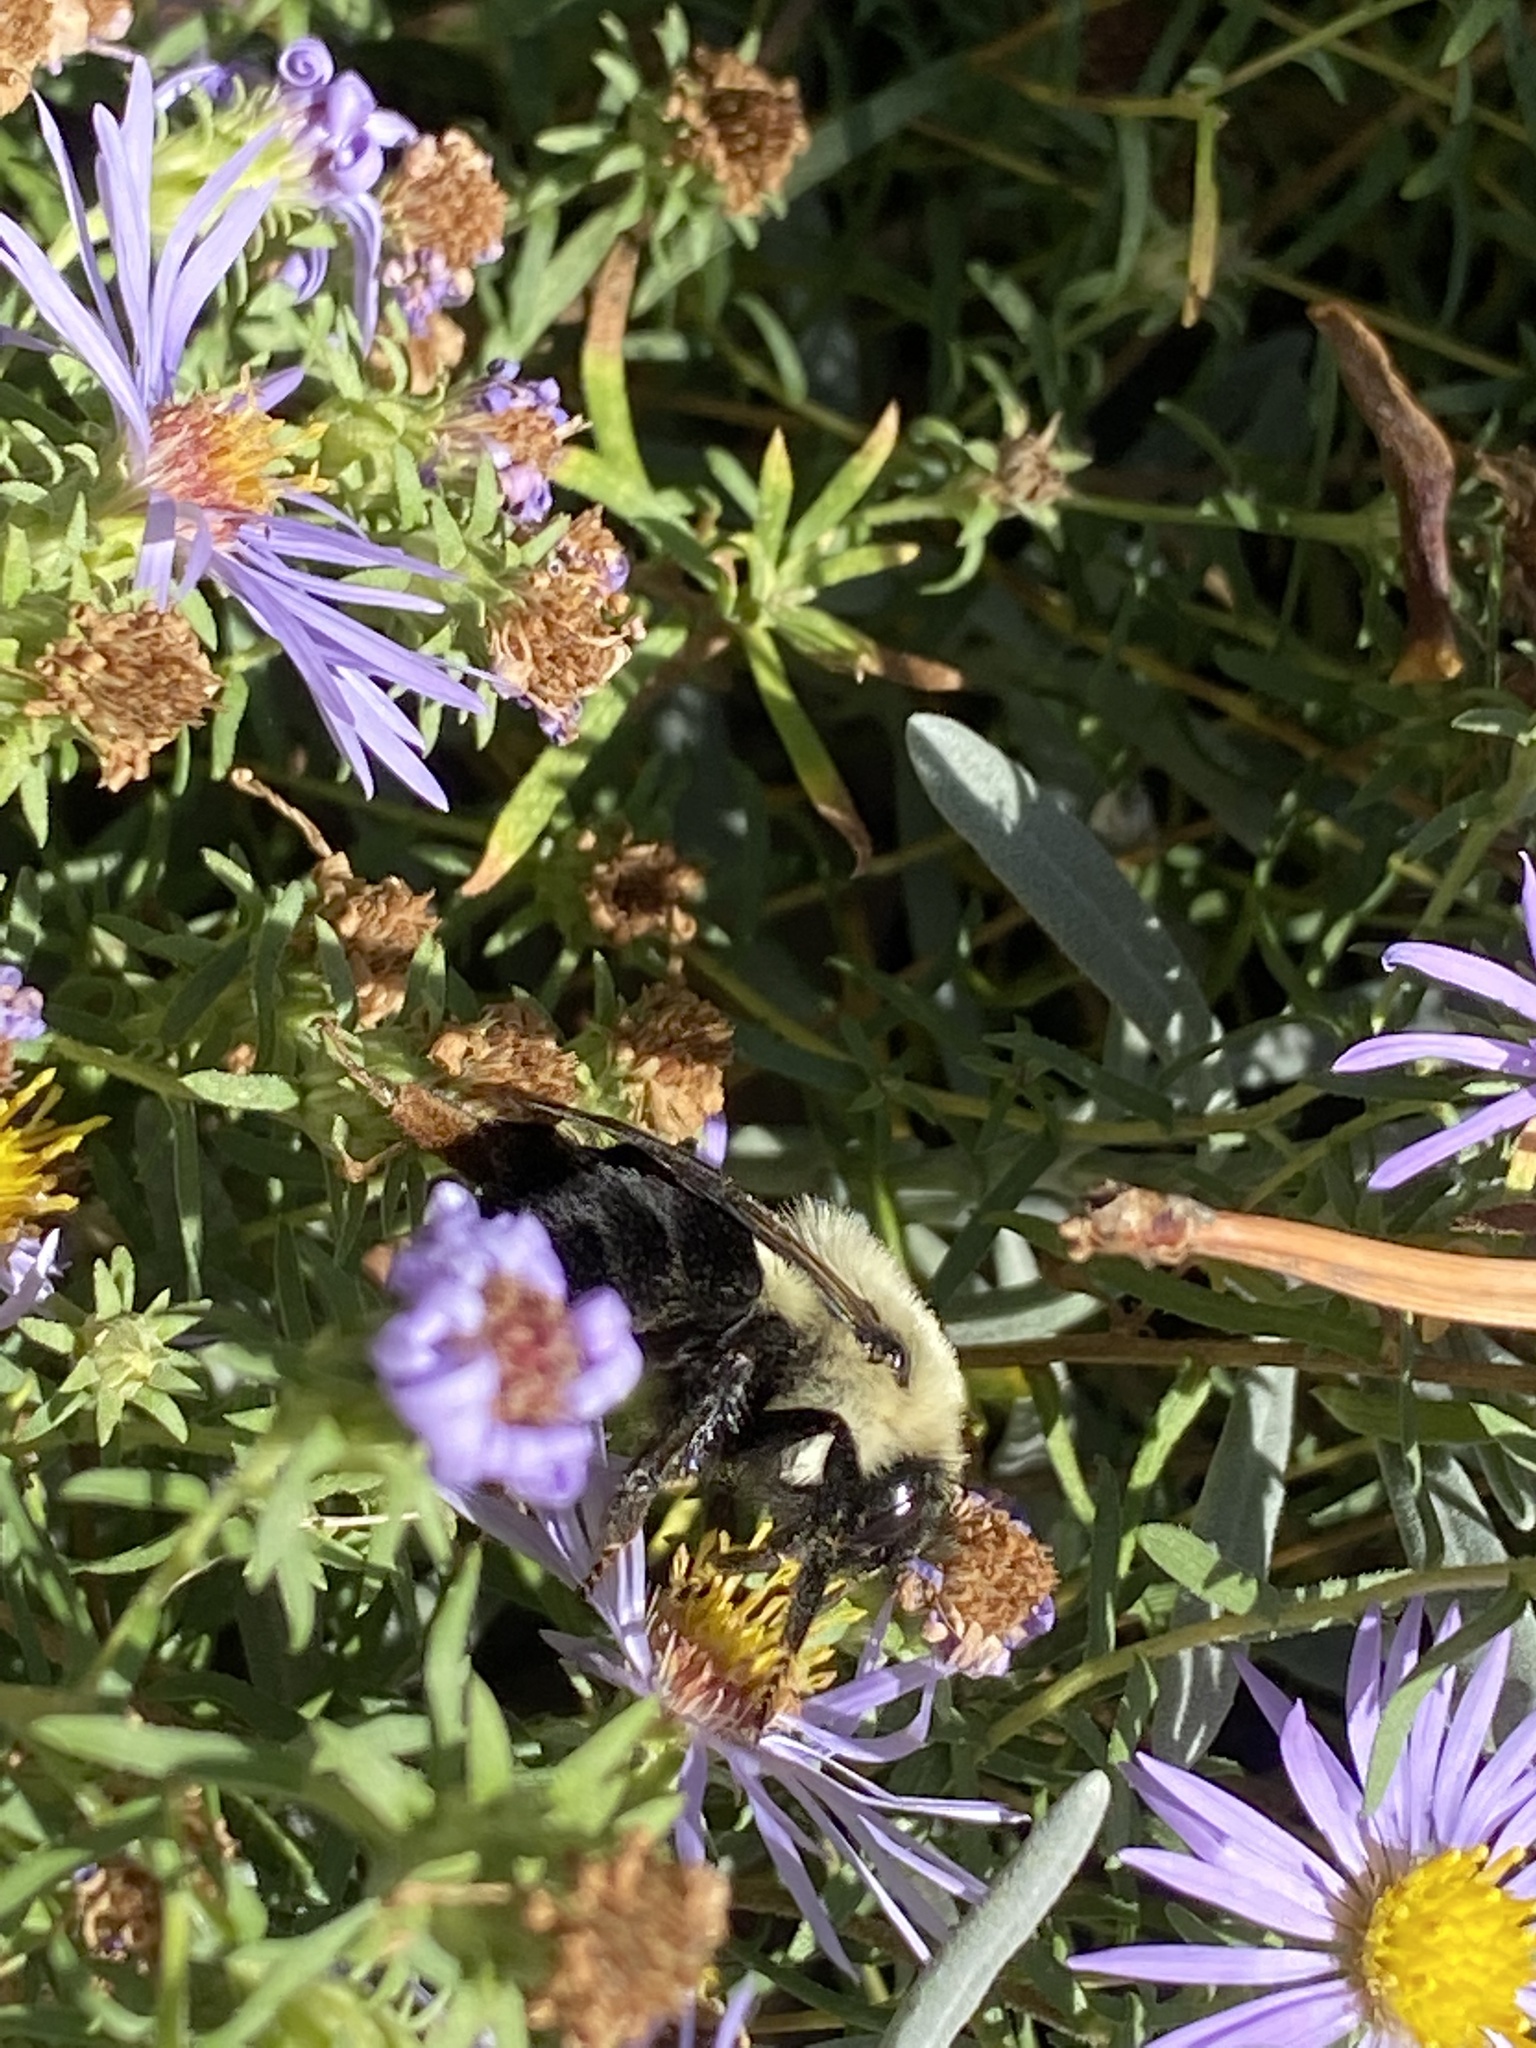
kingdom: Animalia
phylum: Arthropoda
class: Insecta
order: Hymenoptera
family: Apidae
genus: Bombus
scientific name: Bombus impatiens
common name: Common eastern bumble bee
